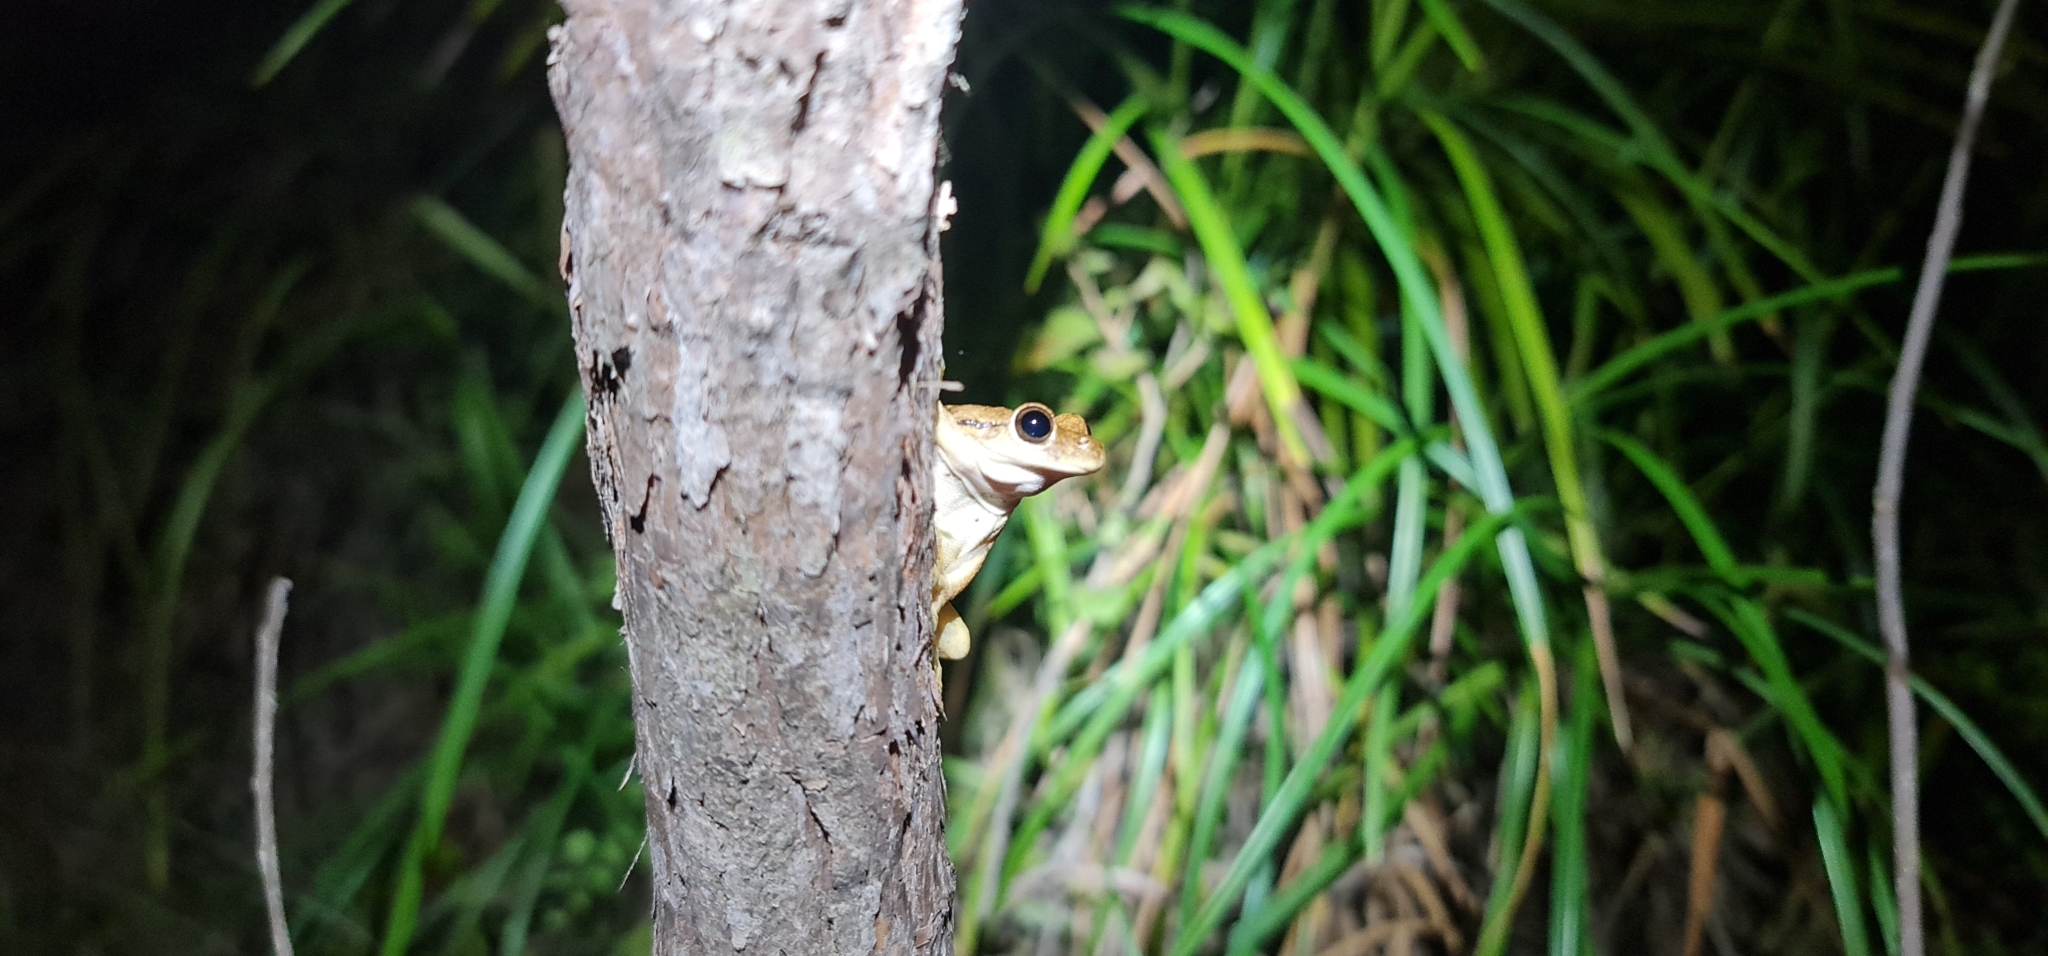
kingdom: Animalia
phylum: Chordata
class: Amphibia
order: Anura
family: Pelodryadidae
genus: Litoria
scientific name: Litoria
